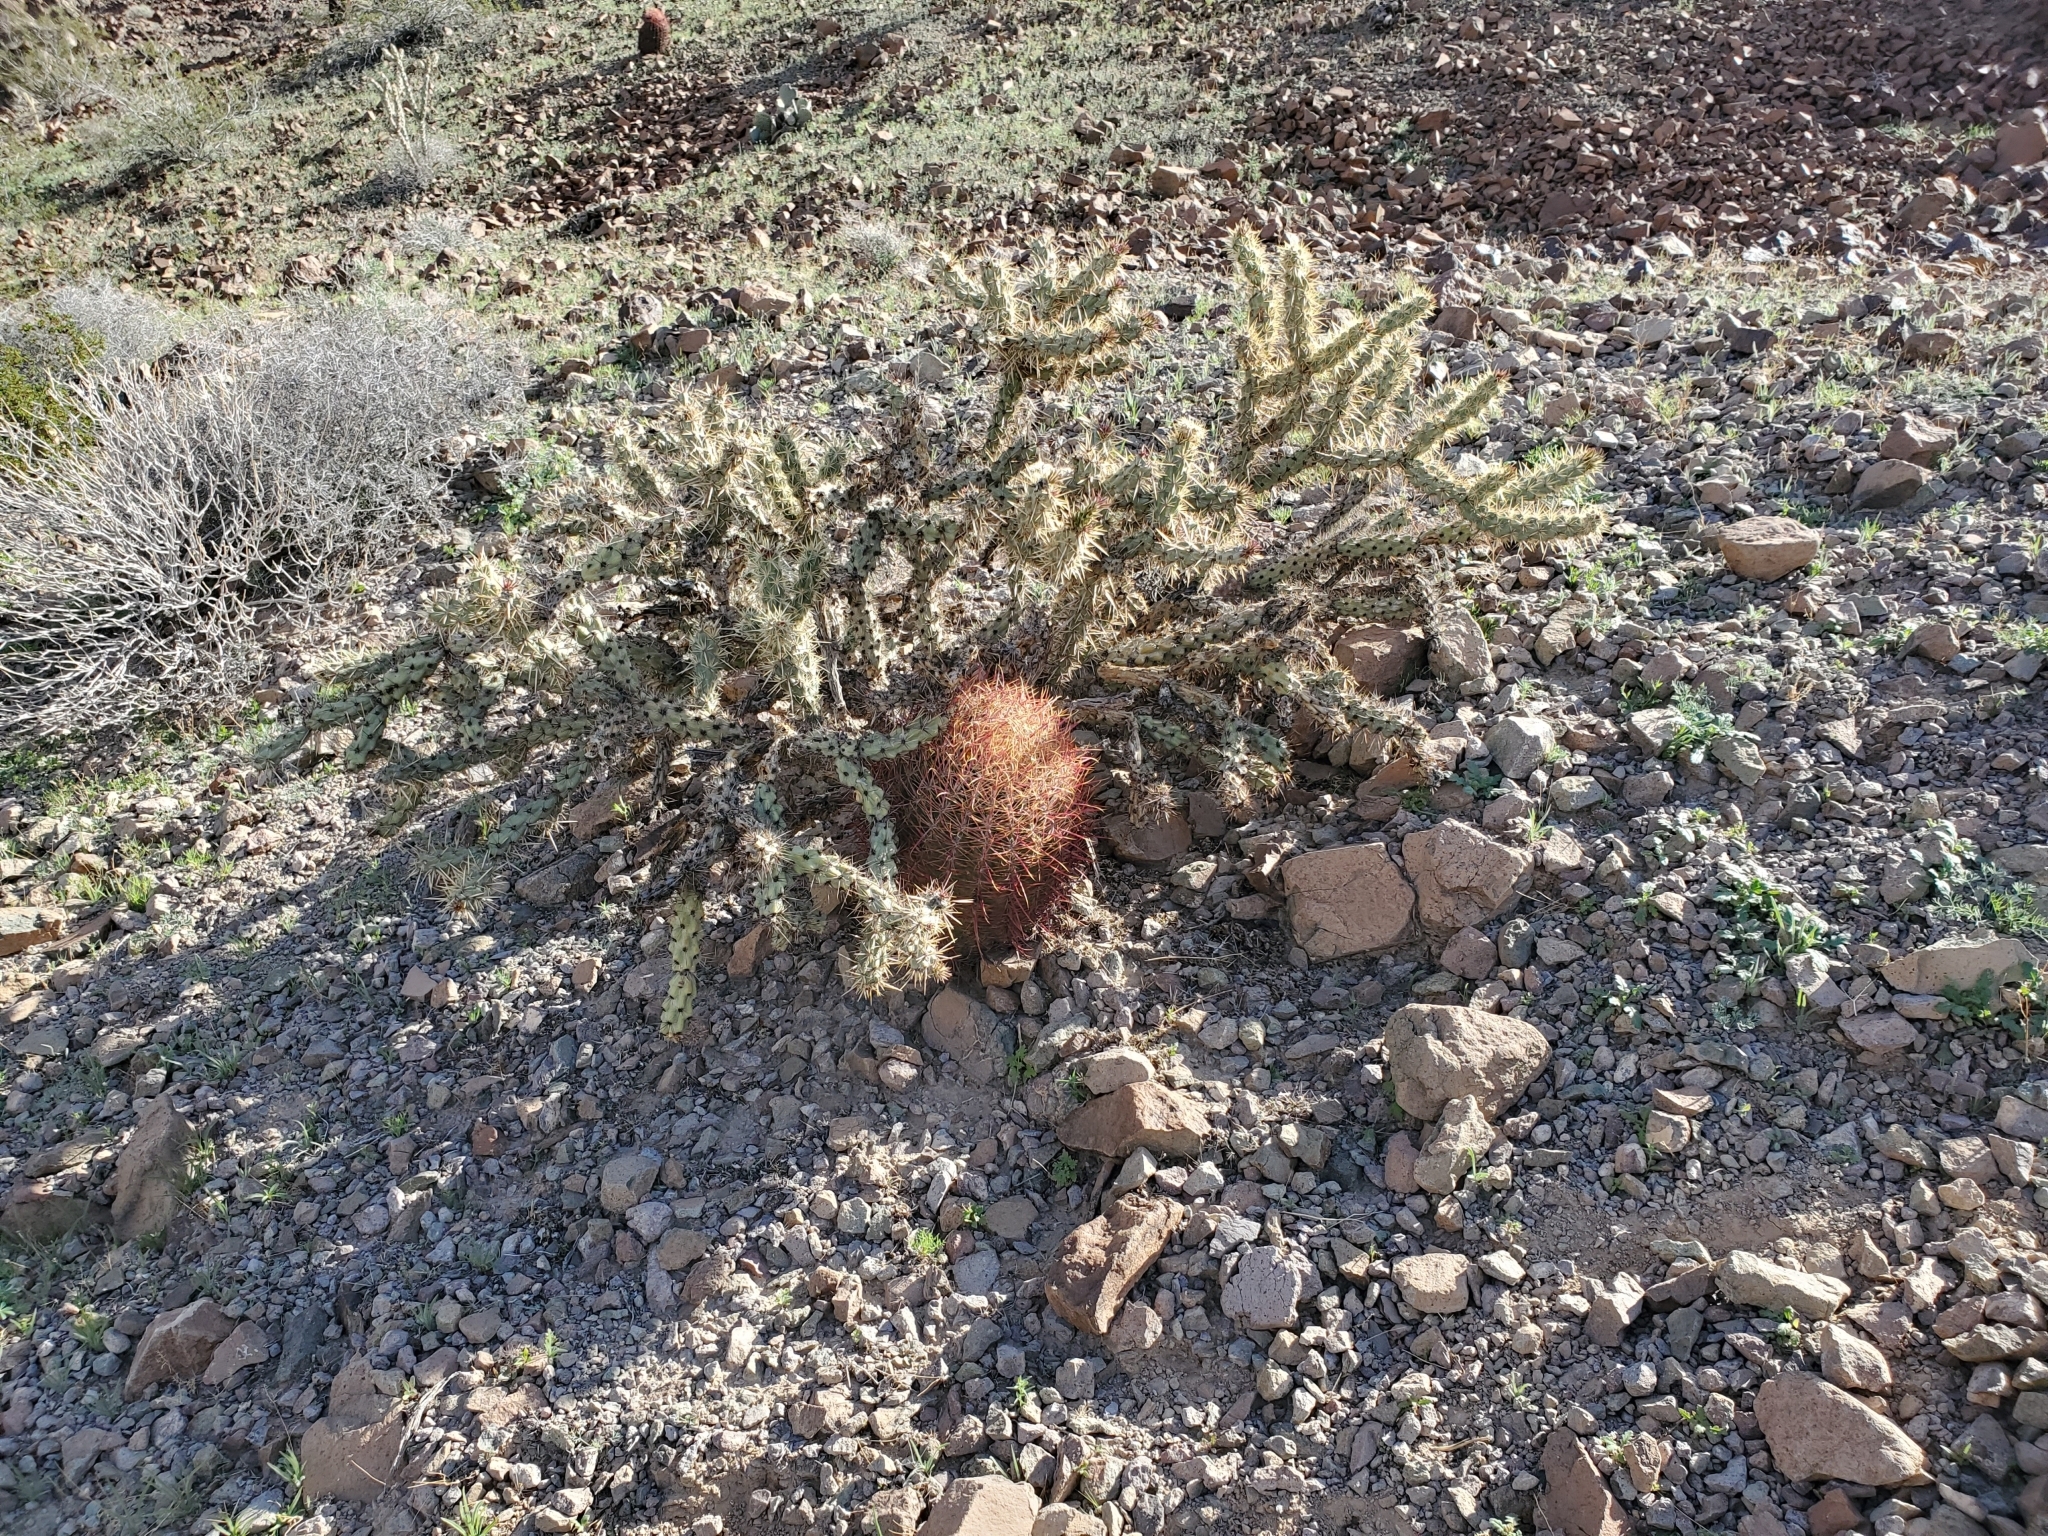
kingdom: Plantae
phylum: Tracheophyta
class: Magnoliopsida
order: Caryophyllales
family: Cactaceae
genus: Cylindropuntia
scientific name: Cylindropuntia acanthocarpa
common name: Buckhorn cholla
